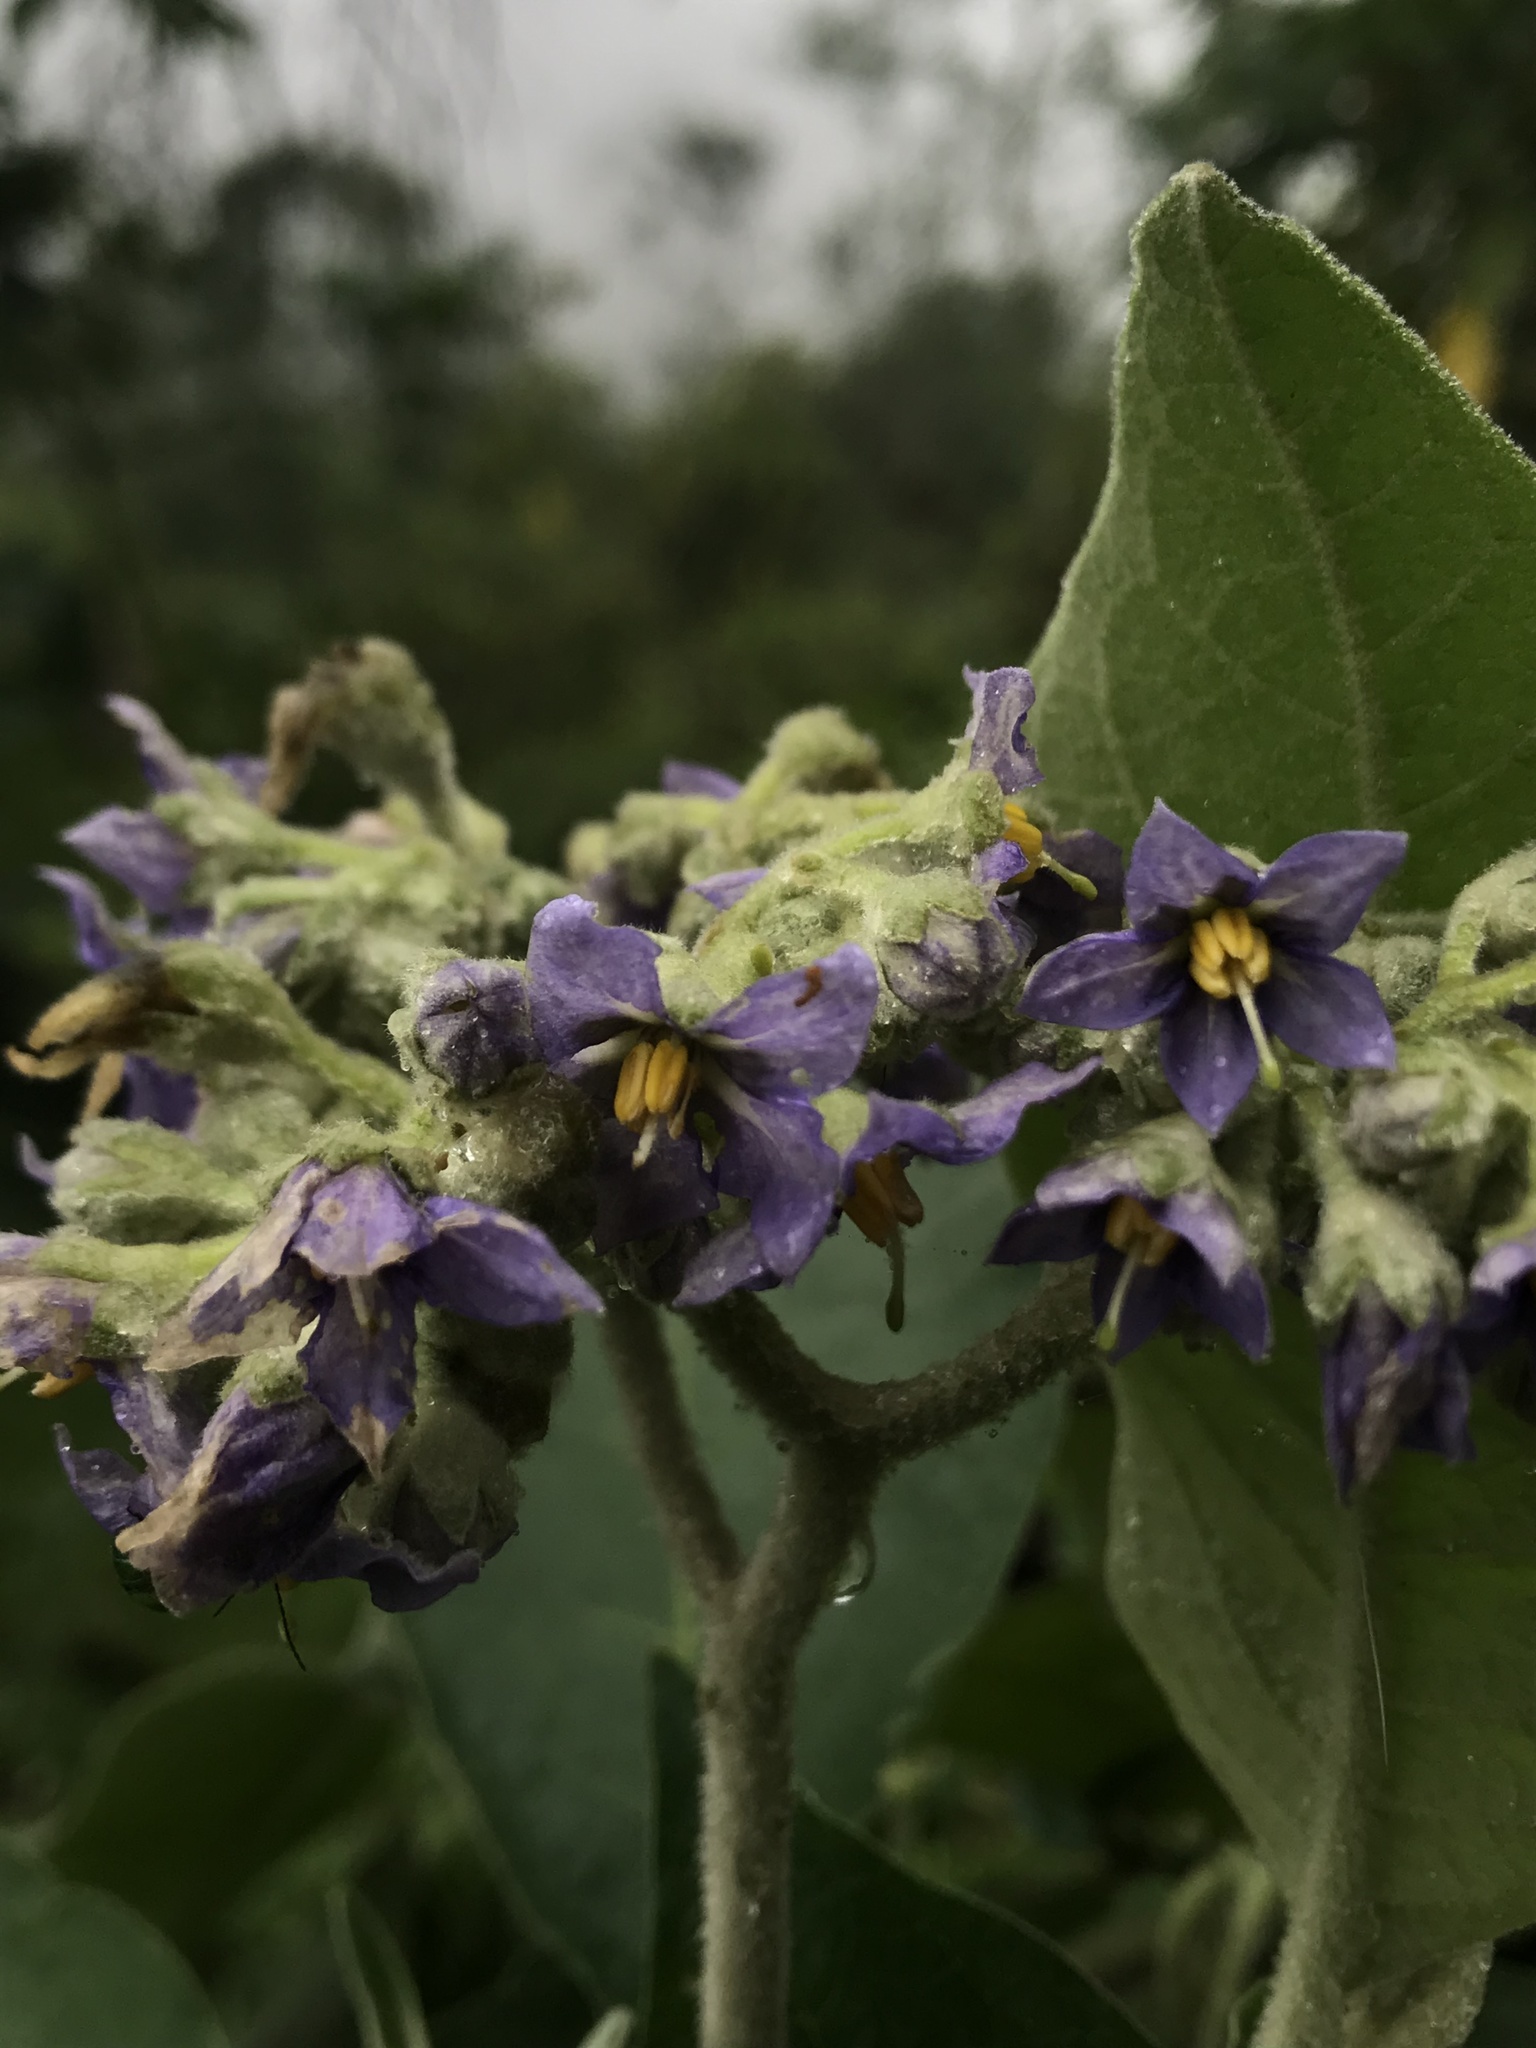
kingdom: Plantae
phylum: Tracheophyta
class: Magnoliopsida
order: Solanales
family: Solanaceae
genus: Solanum
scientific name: Solanum mauritianum
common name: Earleaf nightshade
